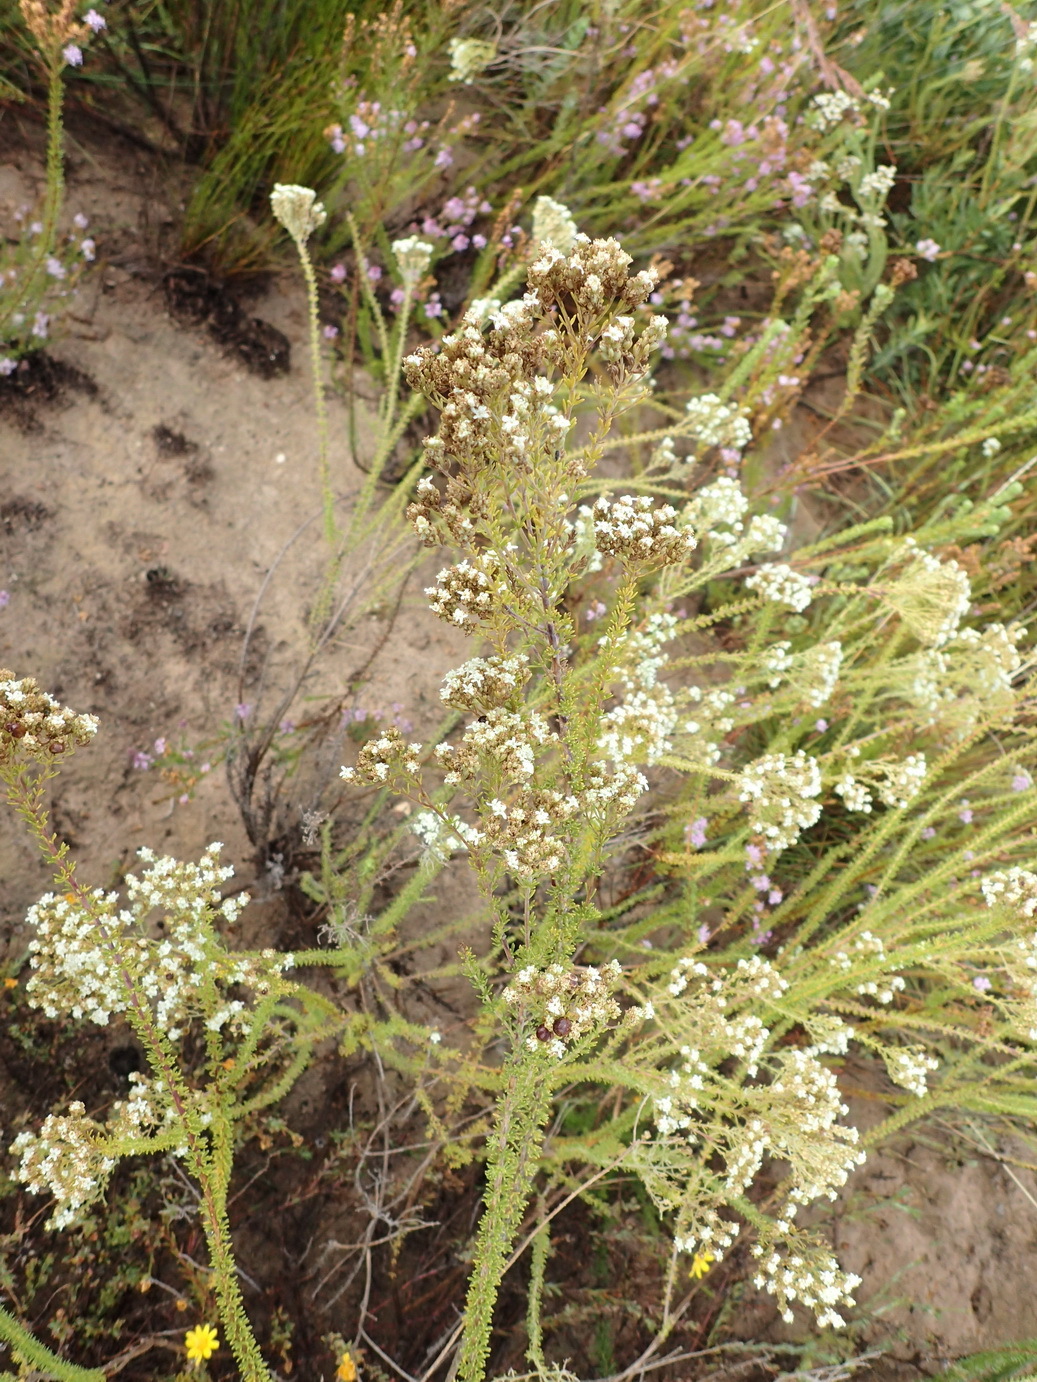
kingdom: Plantae
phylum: Tracheophyta
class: Magnoliopsida
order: Lamiales
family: Scrophulariaceae
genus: Selago
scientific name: Selago dolosa
